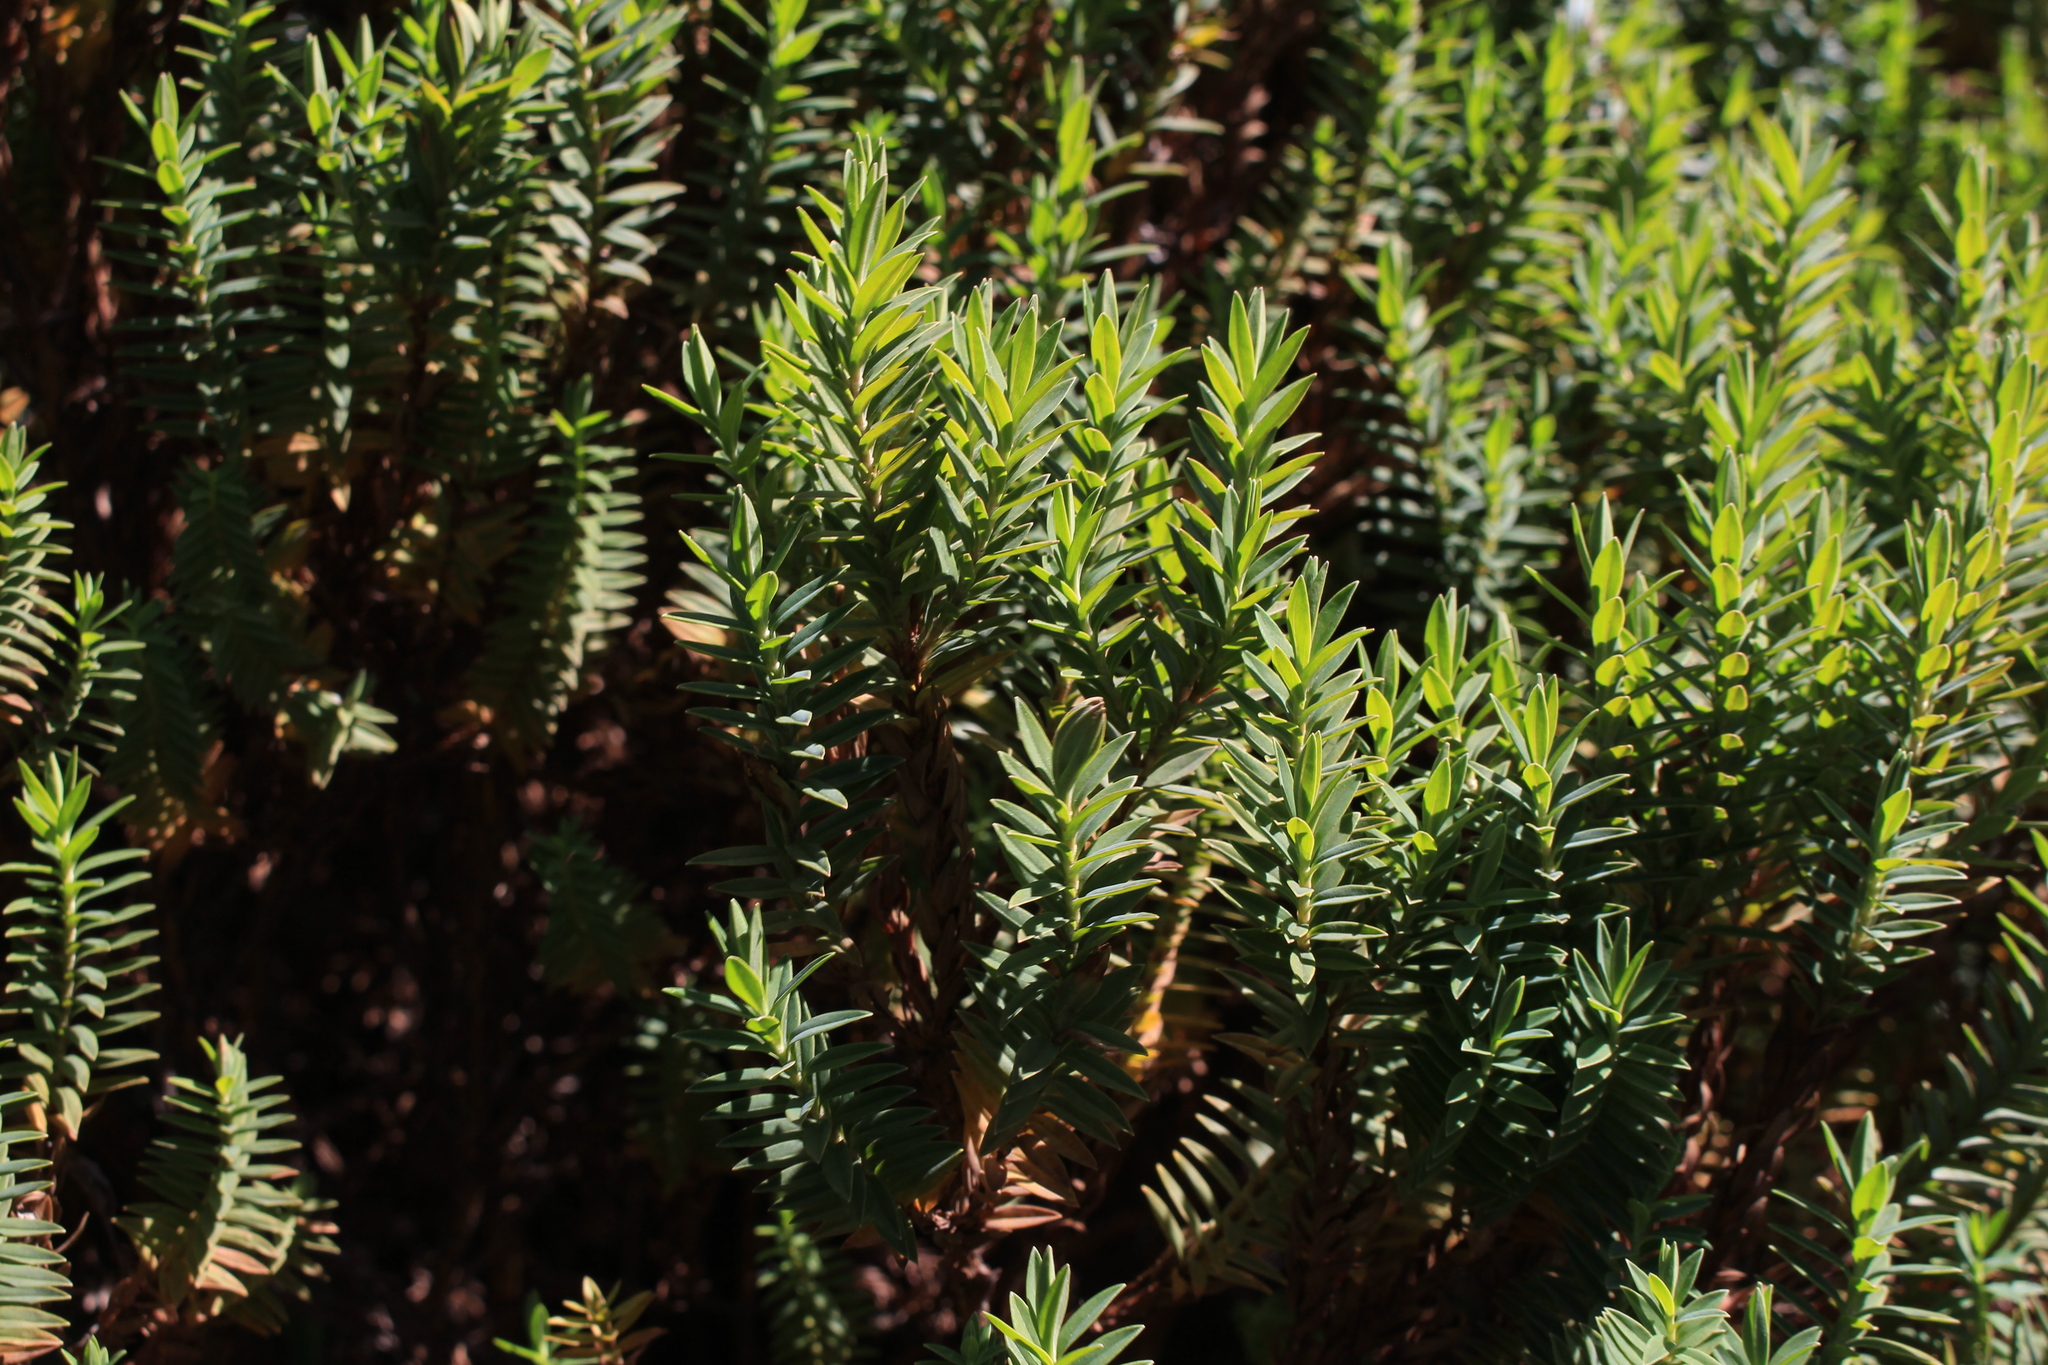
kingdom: Plantae
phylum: Tracheophyta
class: Magnoliopsida
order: Malpighiales
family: Hypericaceae
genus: Hypericum
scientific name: Hypericum irazuense
